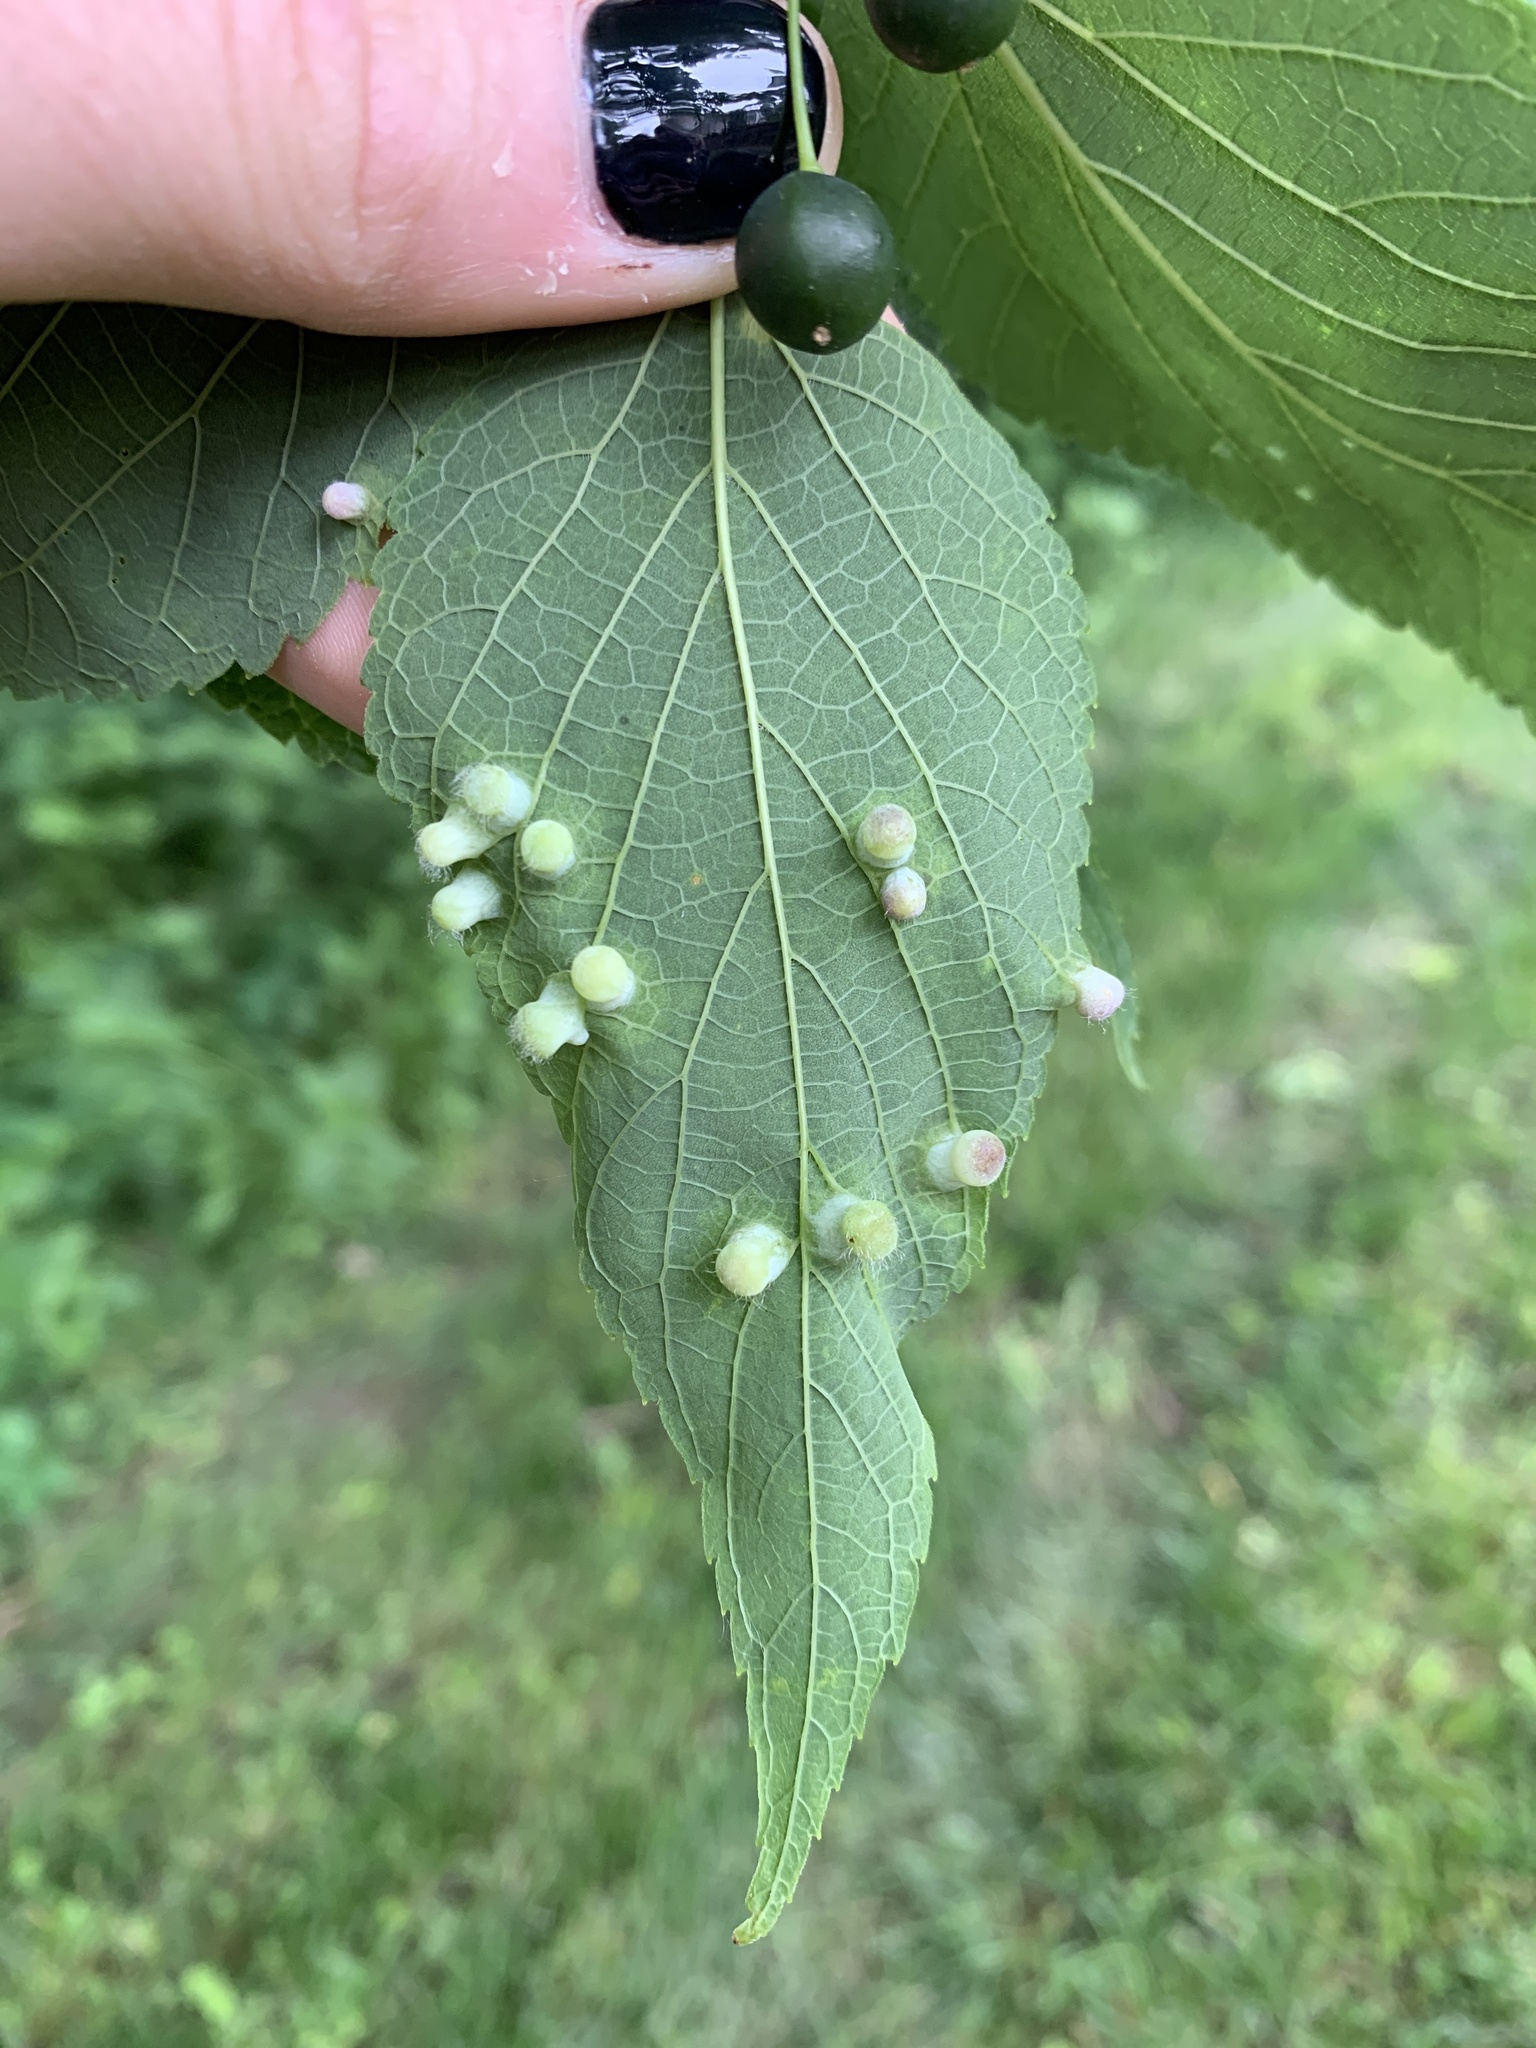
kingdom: Animalia
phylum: Arthropoda
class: Insecta
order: Hemiptera
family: Aphalaridae
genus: Pachypsylla
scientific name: Pachypsylla celtidismamma
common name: Hackberry nipplegall psyllid
